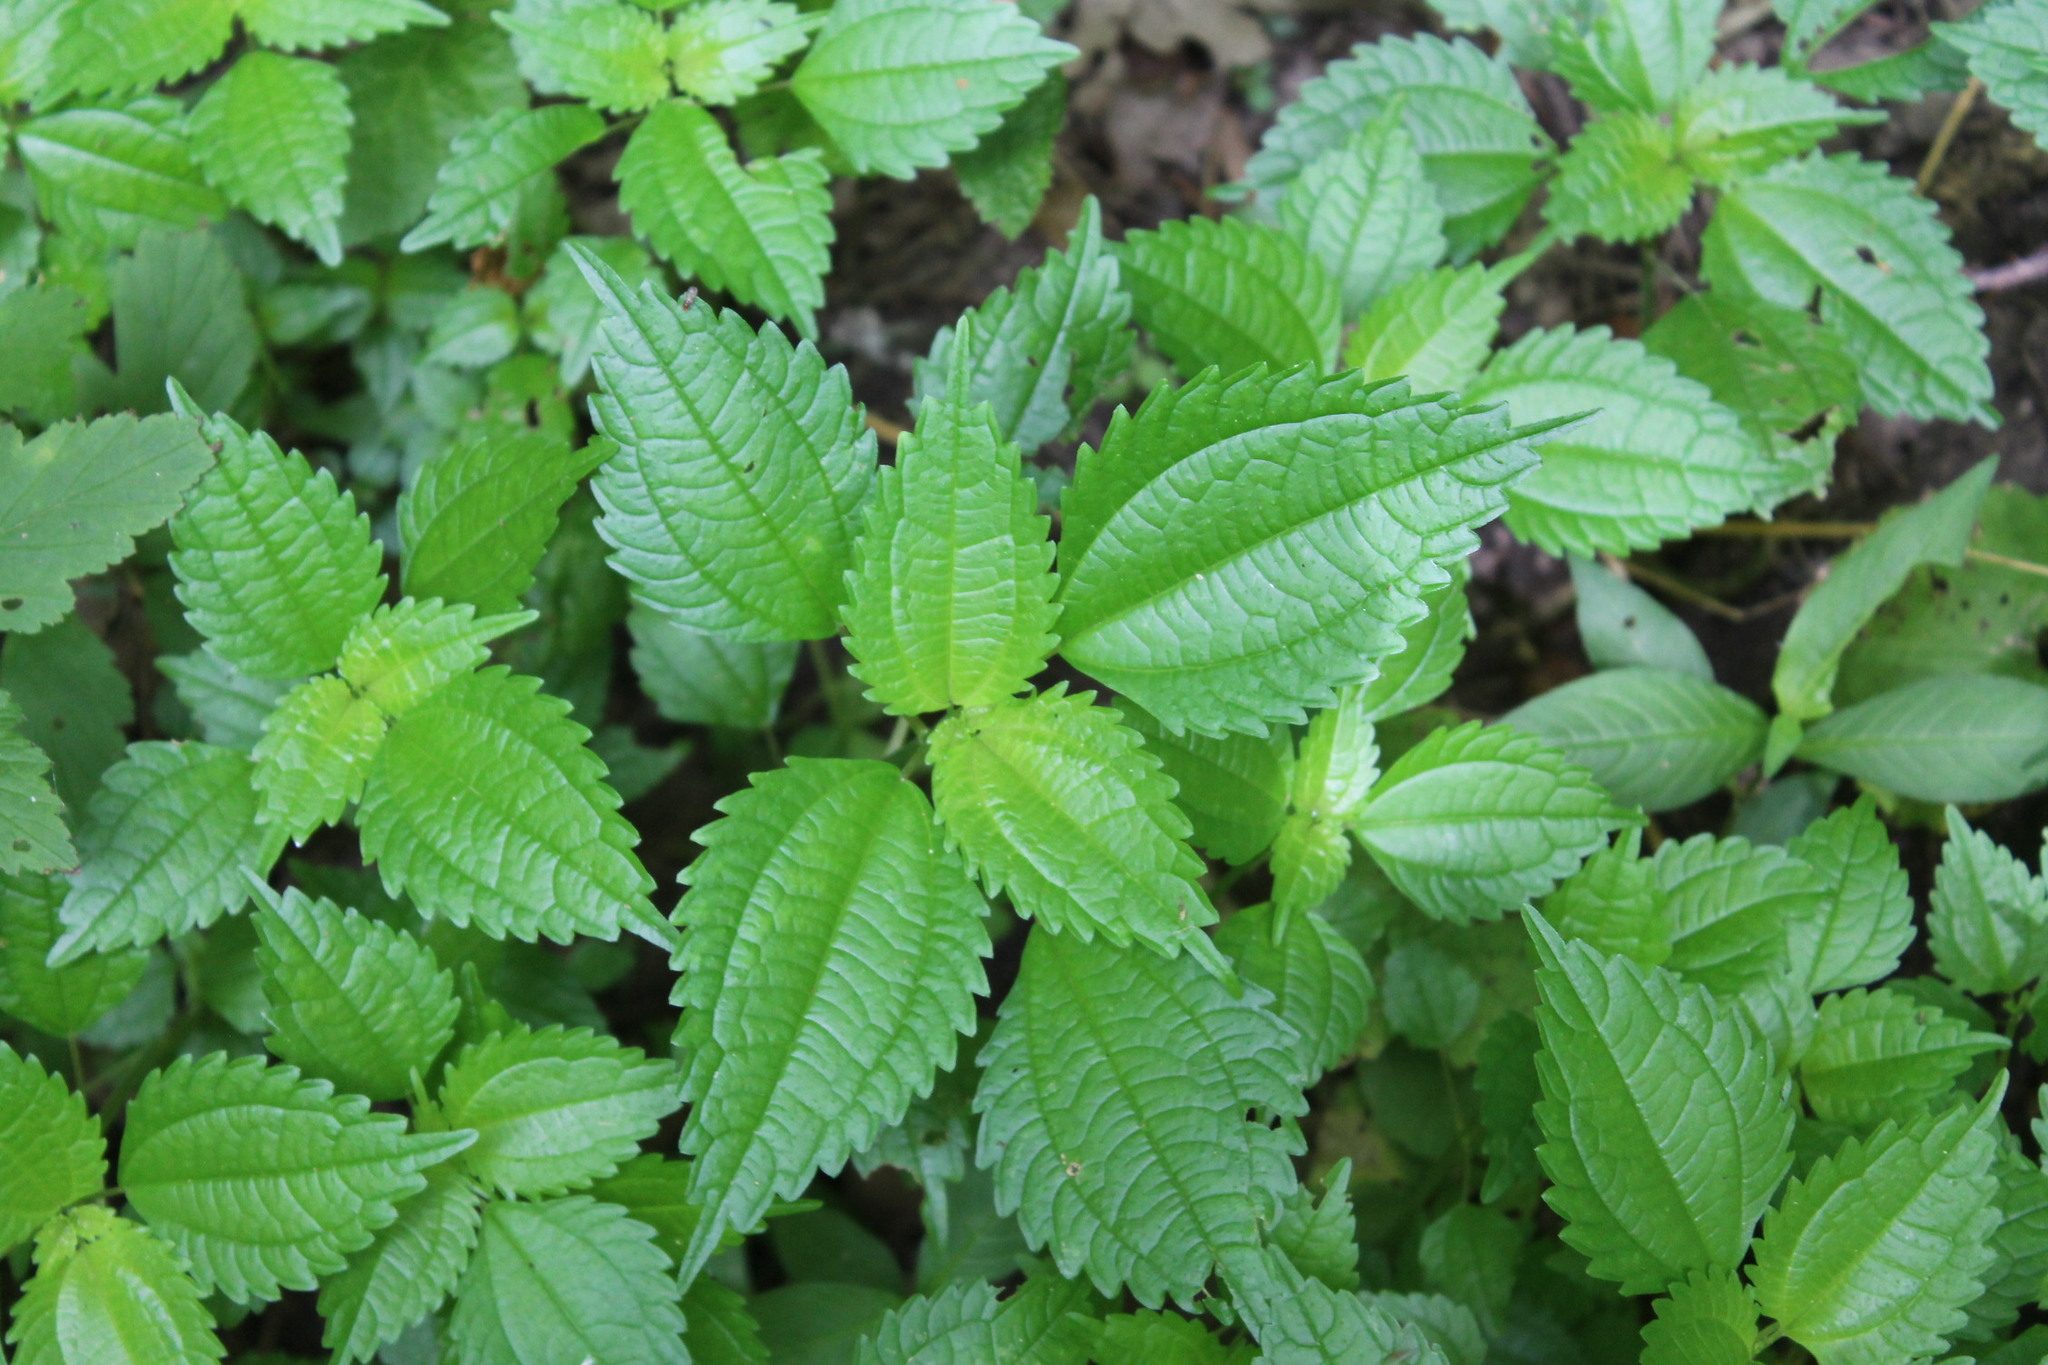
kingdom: Plantae
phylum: Tracheophyta
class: Magnoliopsida
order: Rosales
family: Urticaceae
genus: Pilea
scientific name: Pilea pumila
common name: Clearweed
